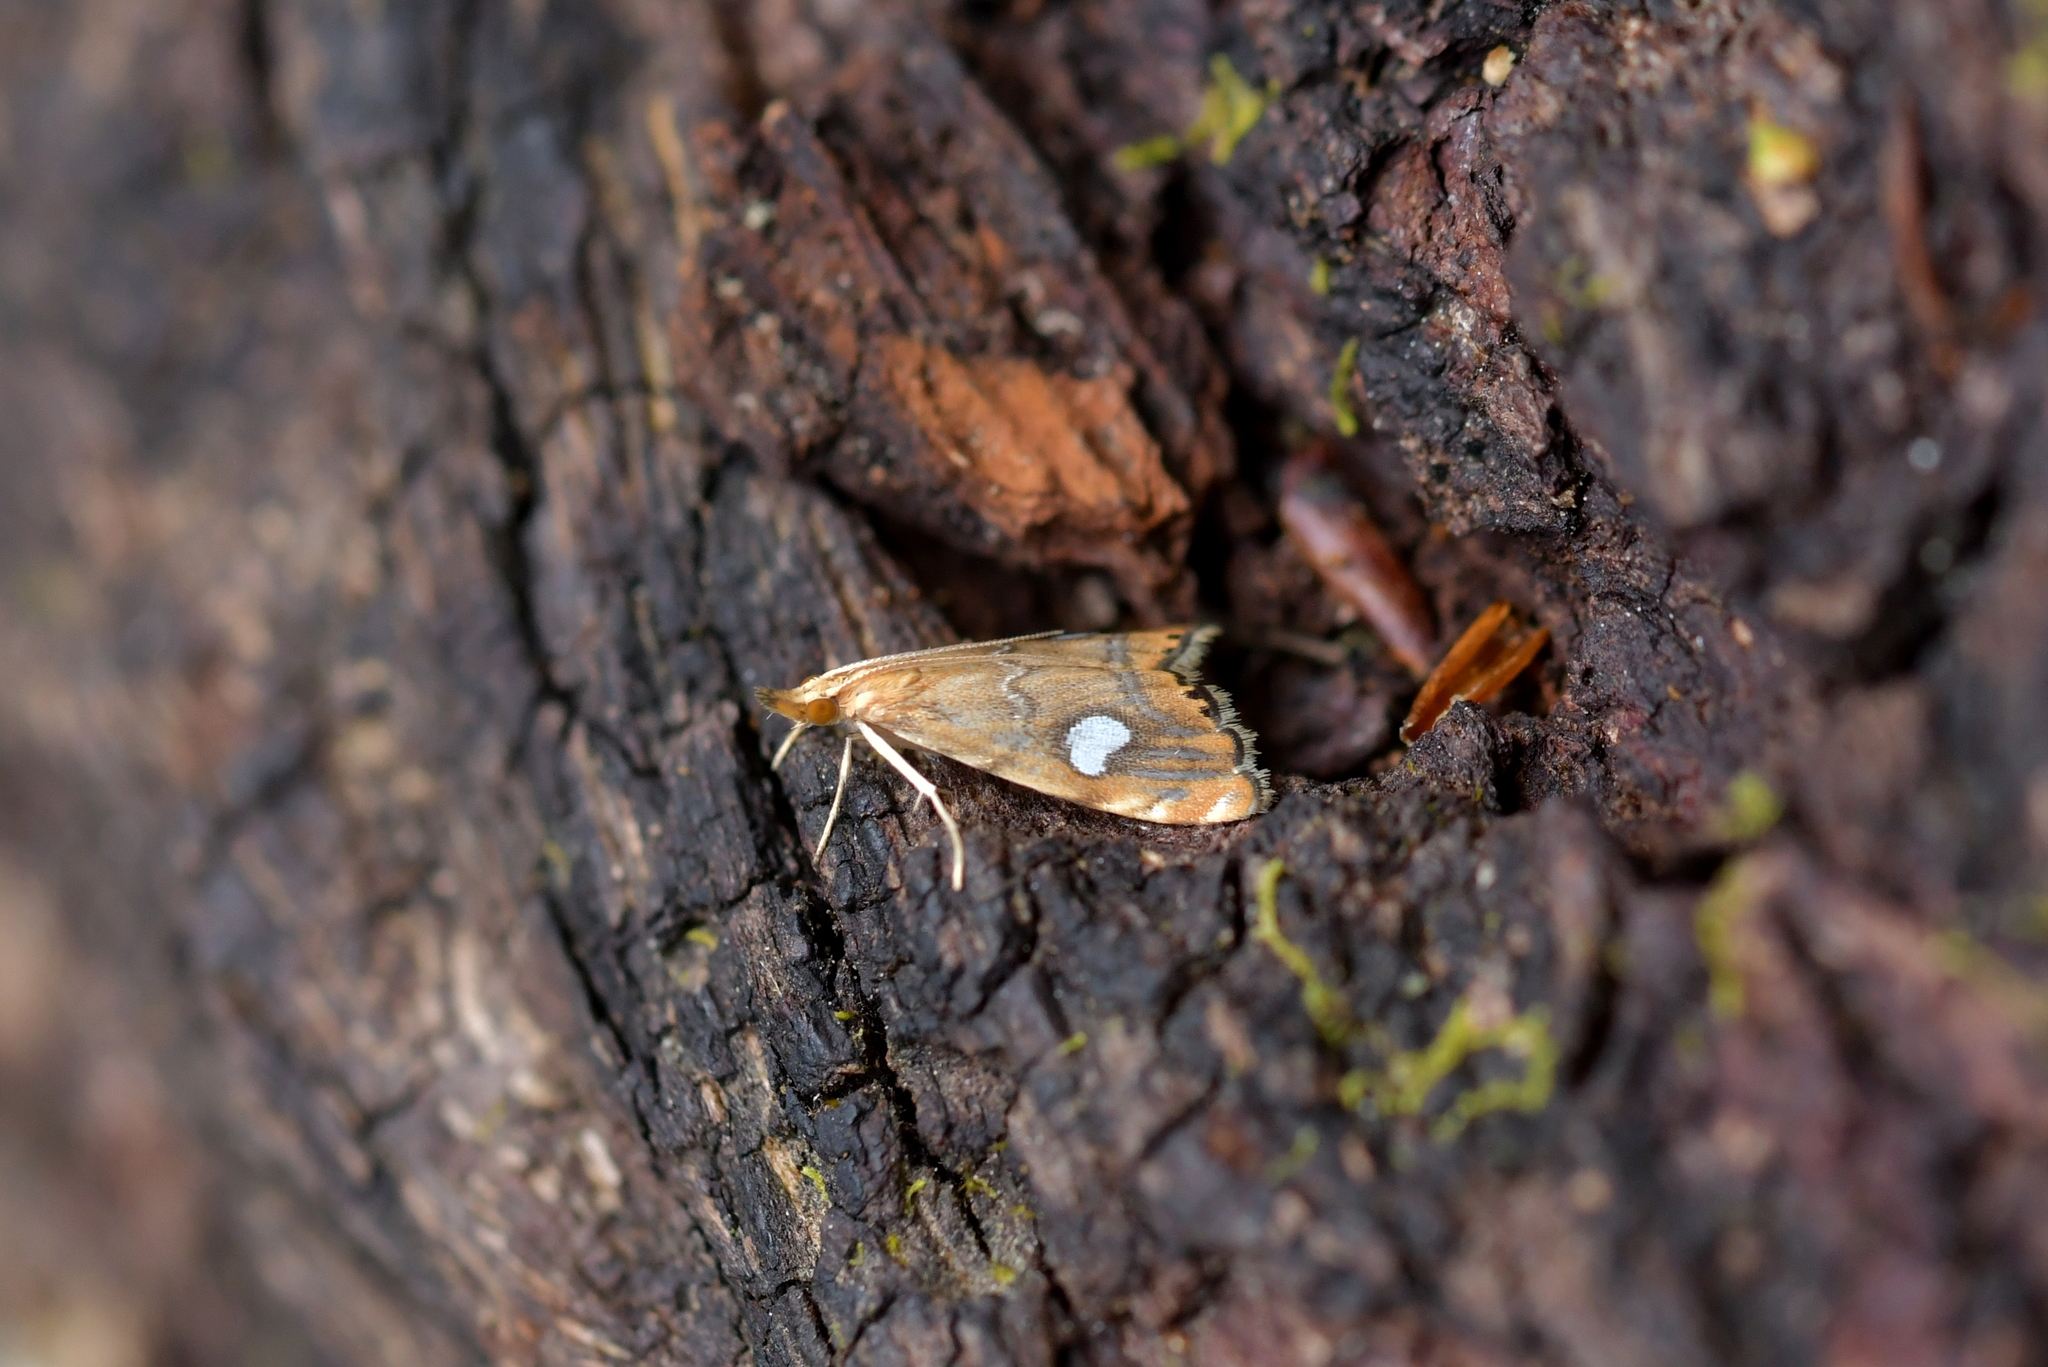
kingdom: Animalia
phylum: Arthropoda
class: Insecta
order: Lepidoptera
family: Crambidae
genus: Glaucocharis
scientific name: Glaucocharis leucoxantha
